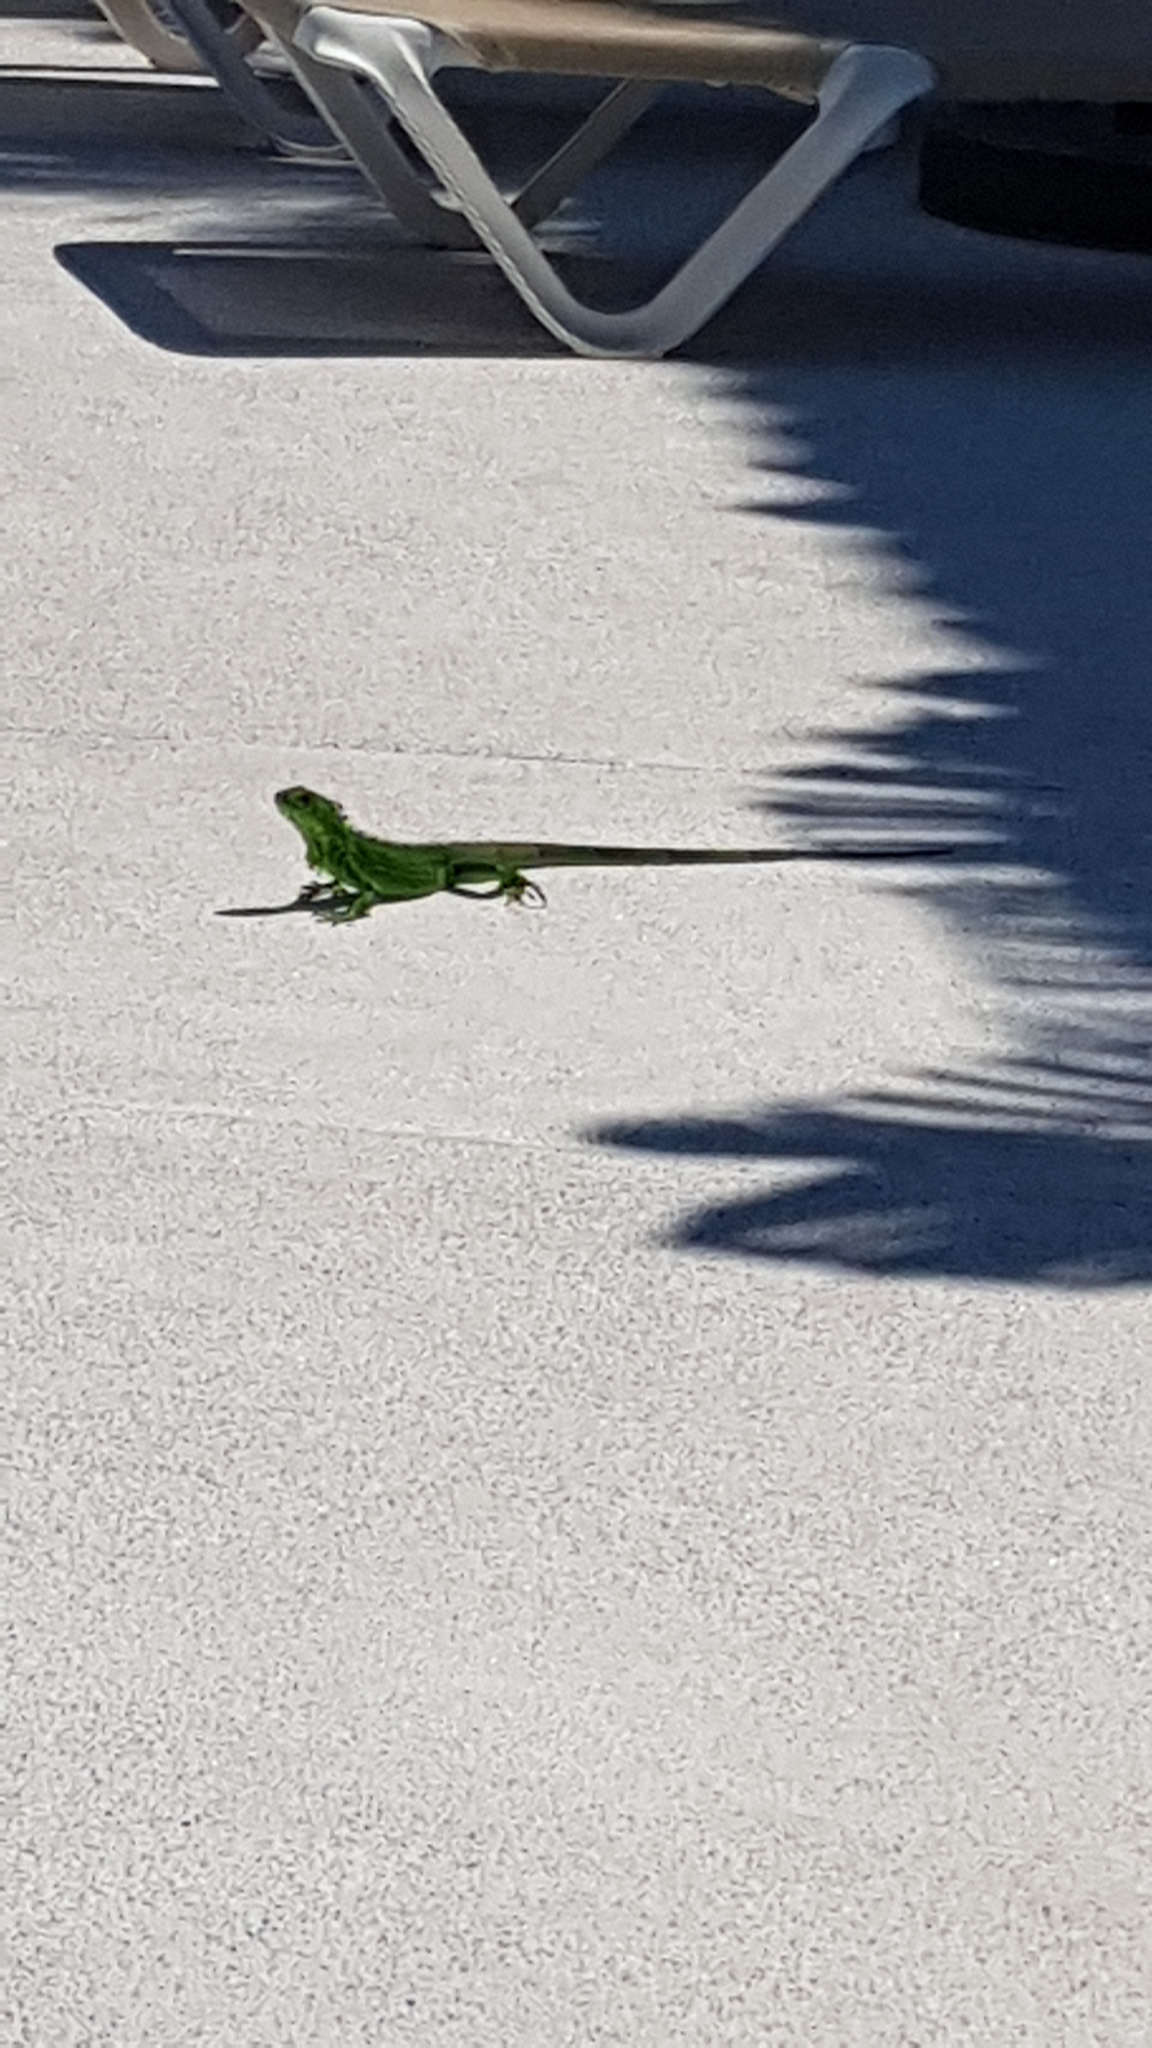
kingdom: Animalia
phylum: Chordata
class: Squamata
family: Iguanidae
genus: Iguana
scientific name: Iguana iguana
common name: Green iguana
